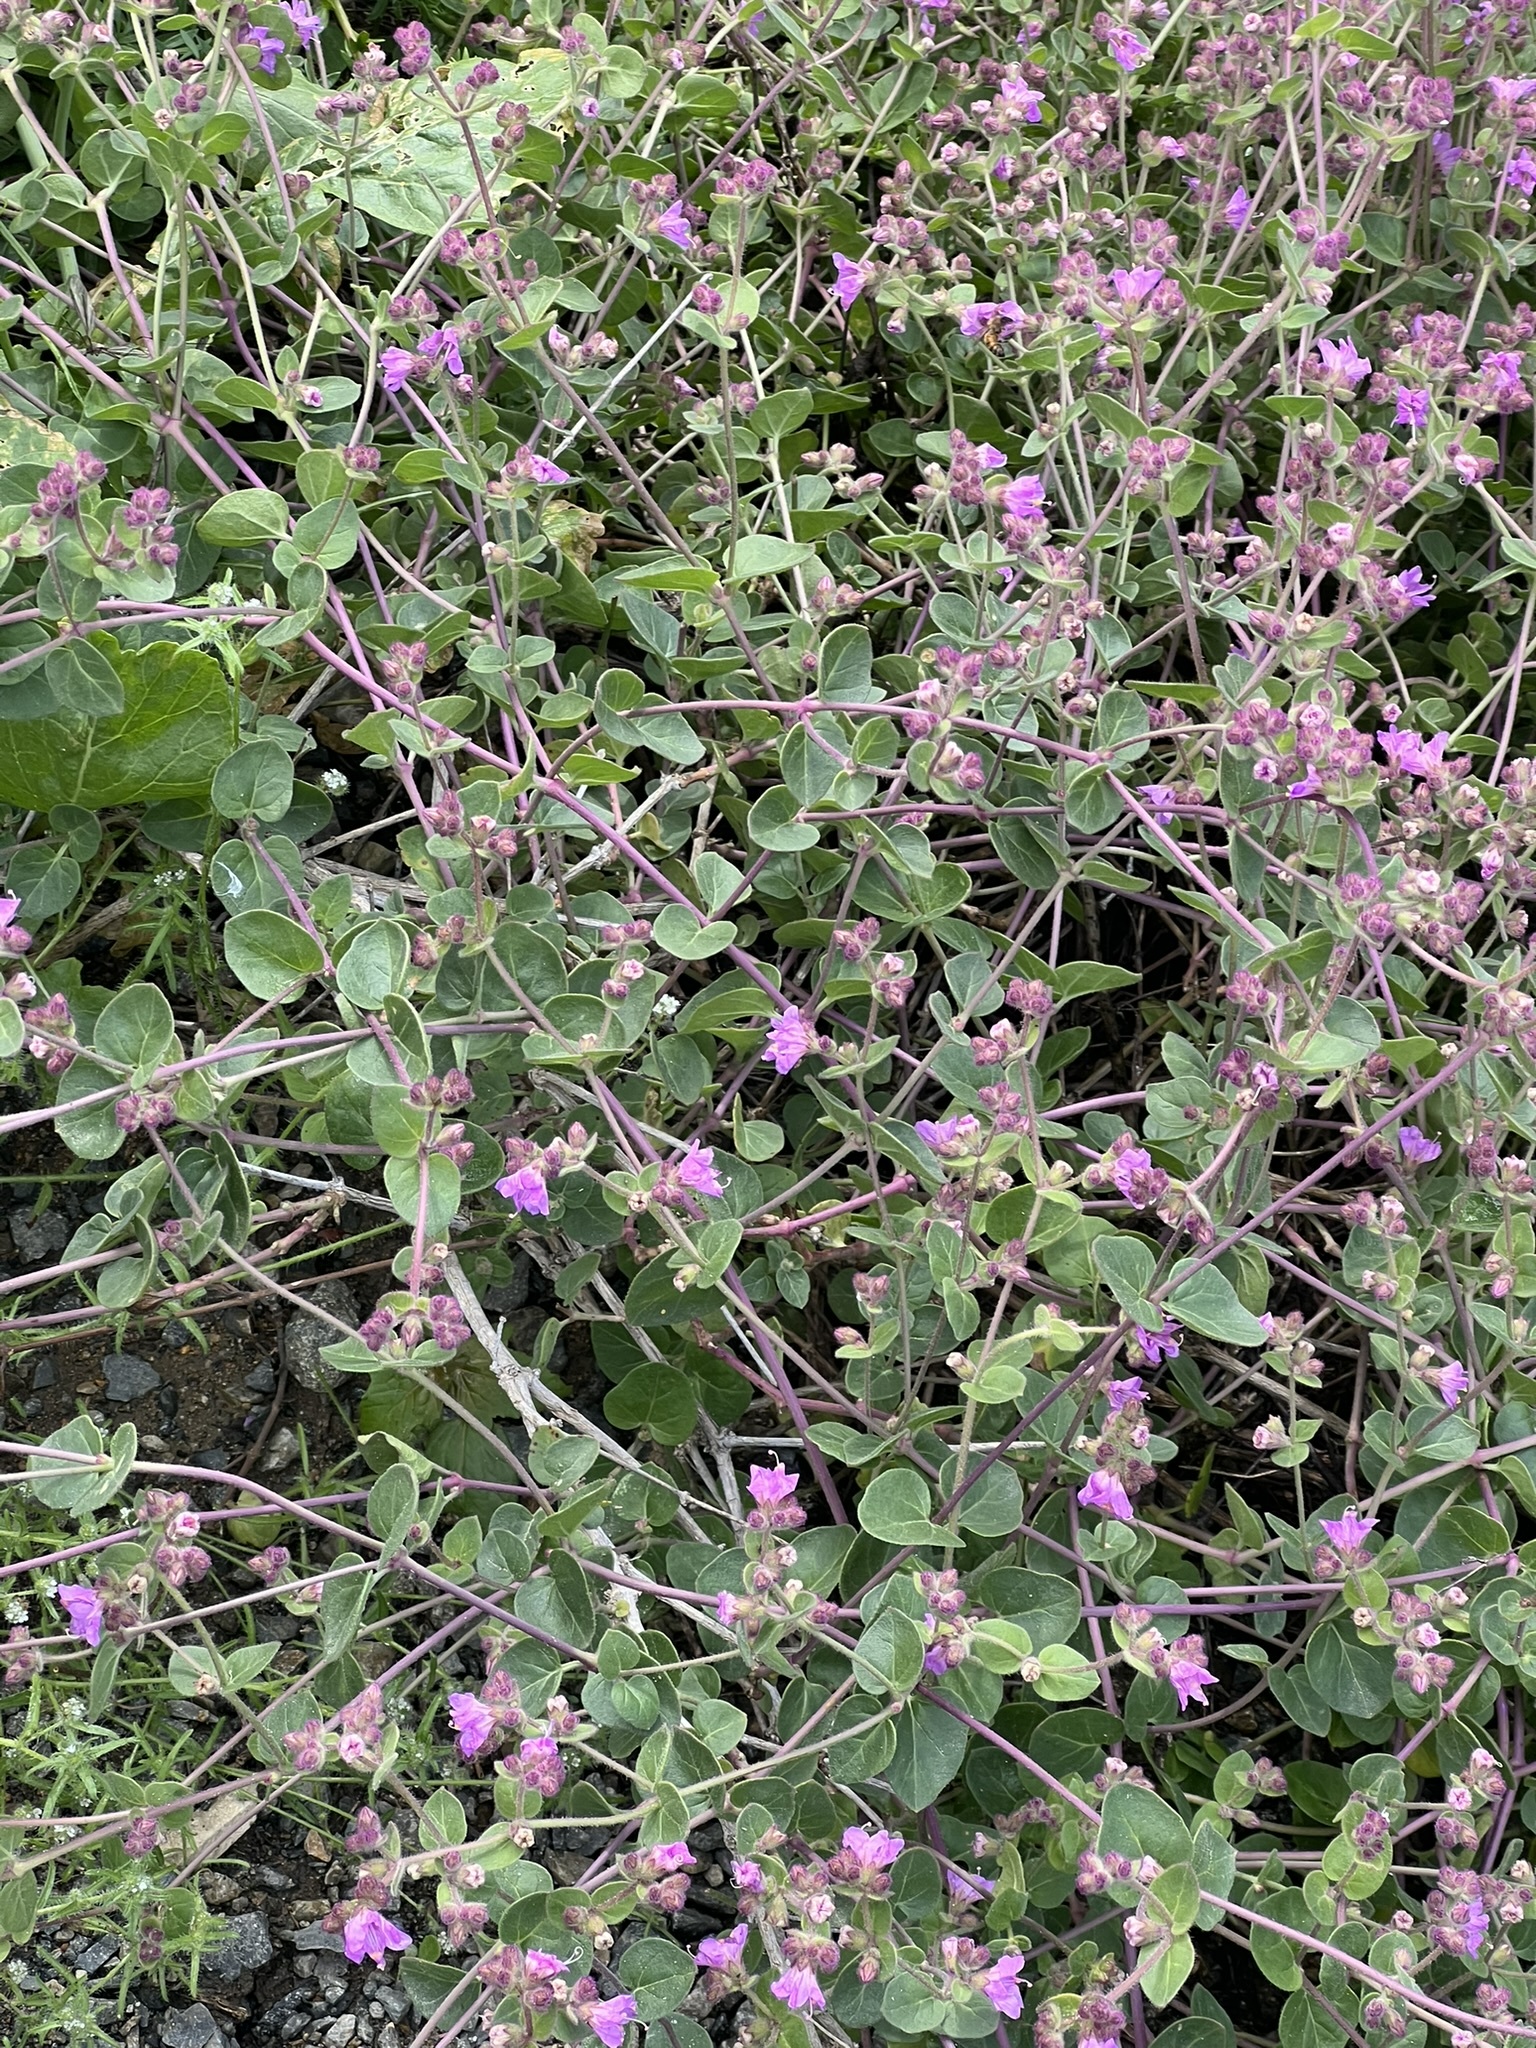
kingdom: Plantae
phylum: Tracheophyta
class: Magnoliopsida
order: Caryophyllales
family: Nyctaginaceae
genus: Mirabilis
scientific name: Mirabilis laevis
